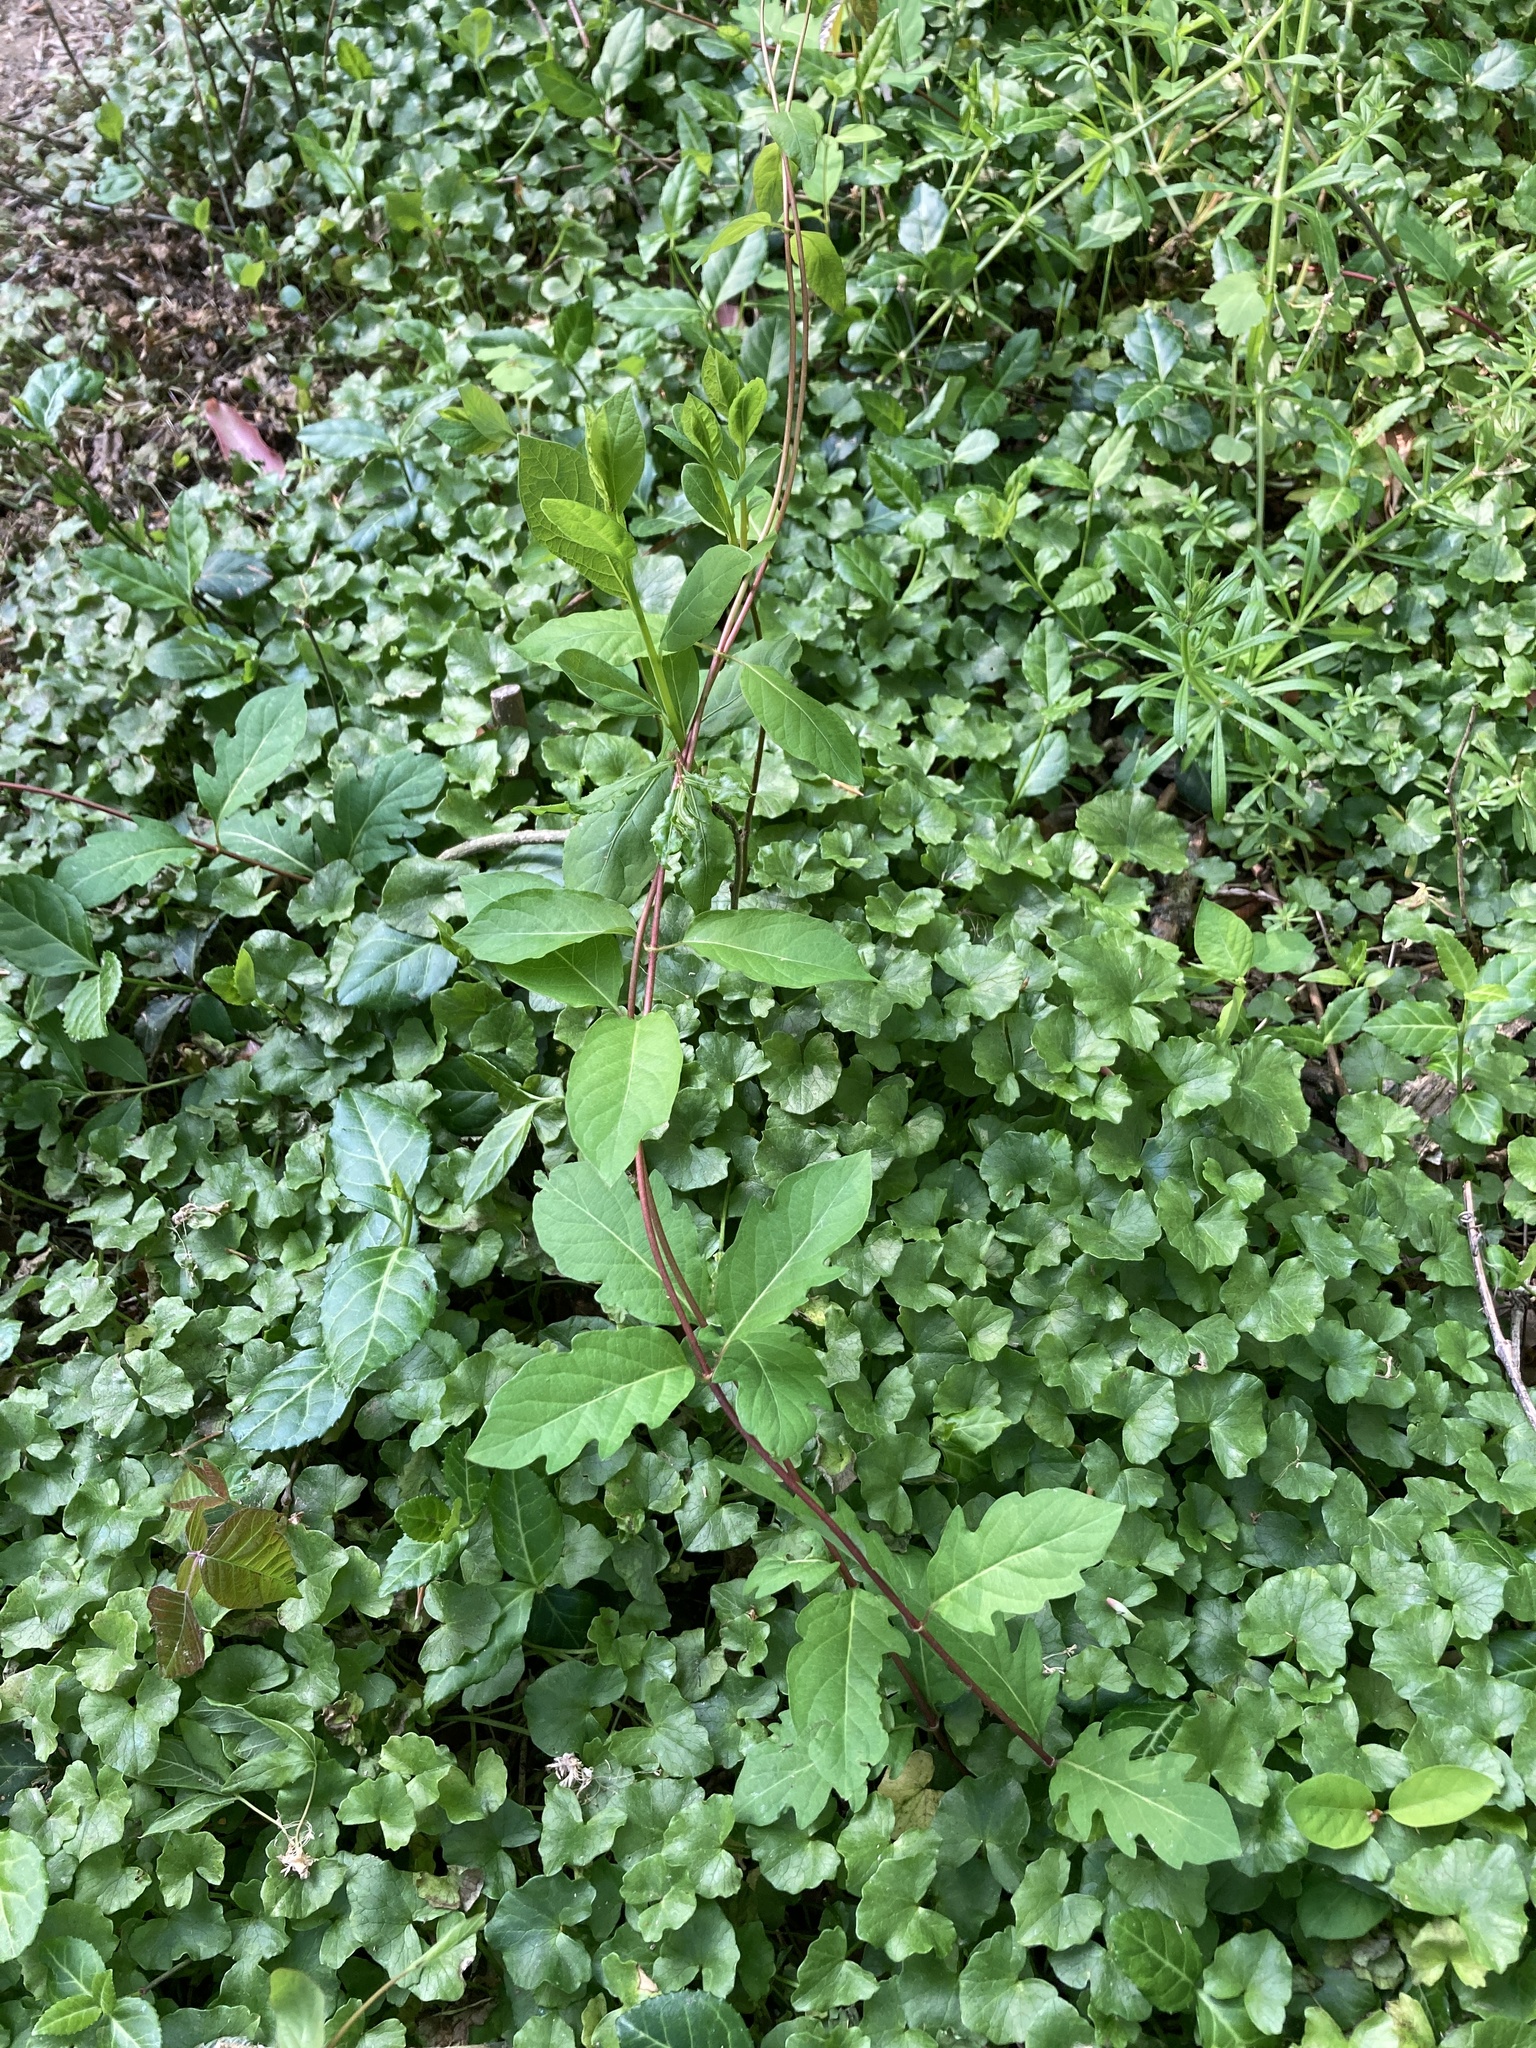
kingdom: Plantae
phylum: Tracheophyta
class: Magnoliopsida
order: Dipsacales
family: Caprifoliaceae
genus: Lonicera
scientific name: Lonicera japonica
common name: Japanese honeysuckle
